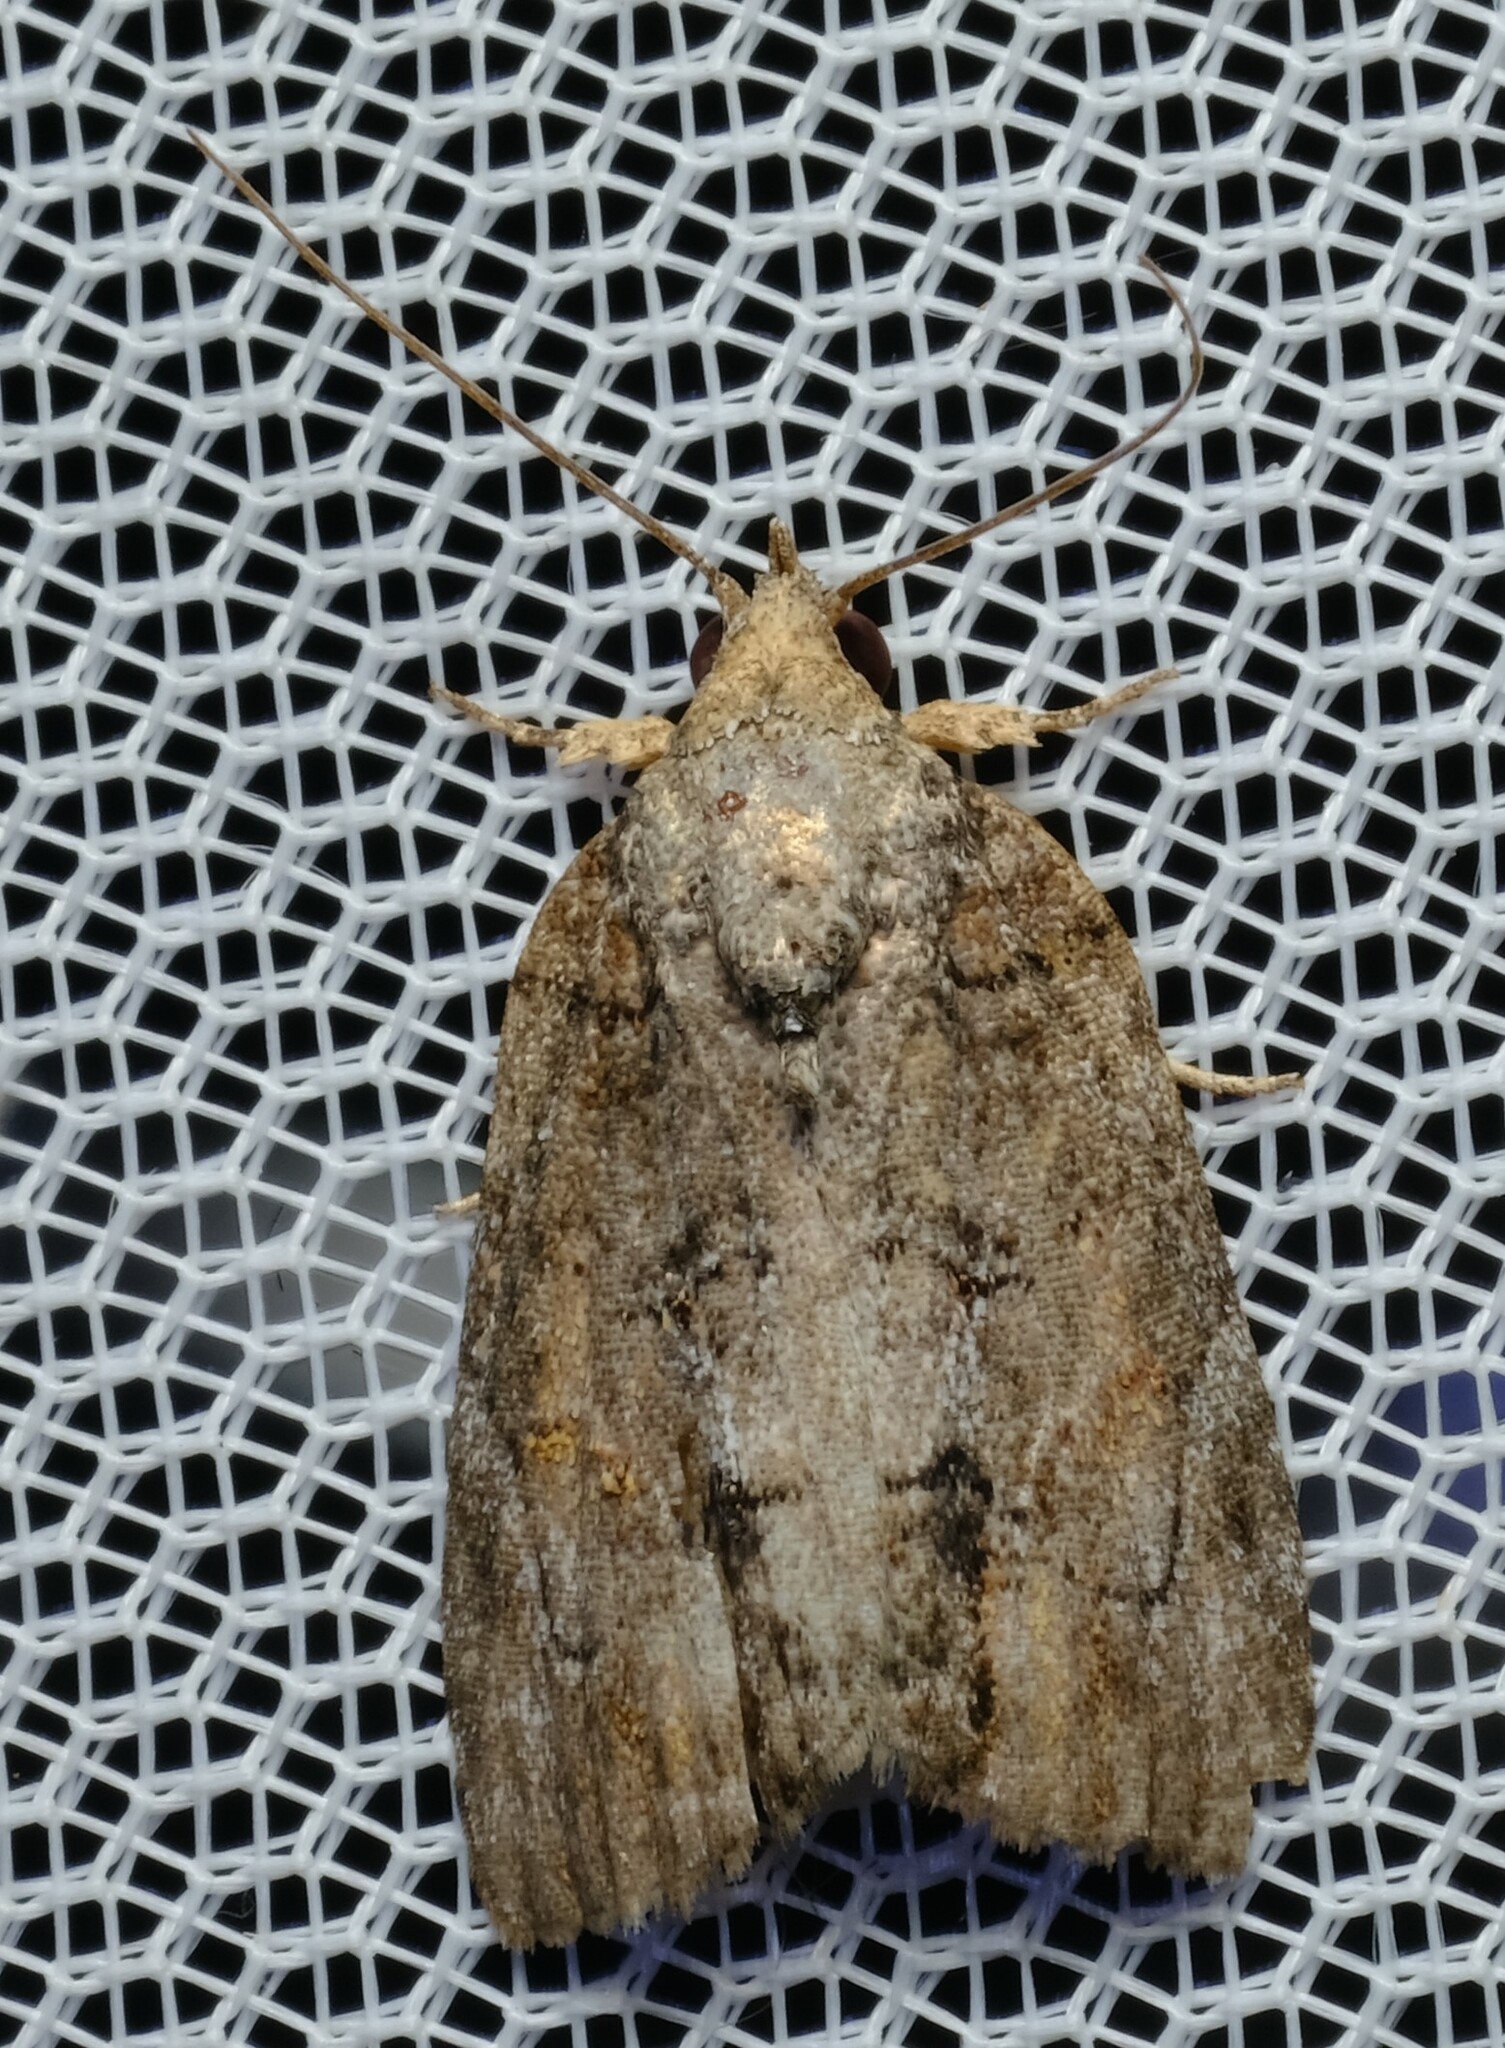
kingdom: Animalia
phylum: Arthropoda
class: Insecta
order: Lepidoptera
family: Nolidae
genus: Etanna
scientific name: Etanna clopaea
